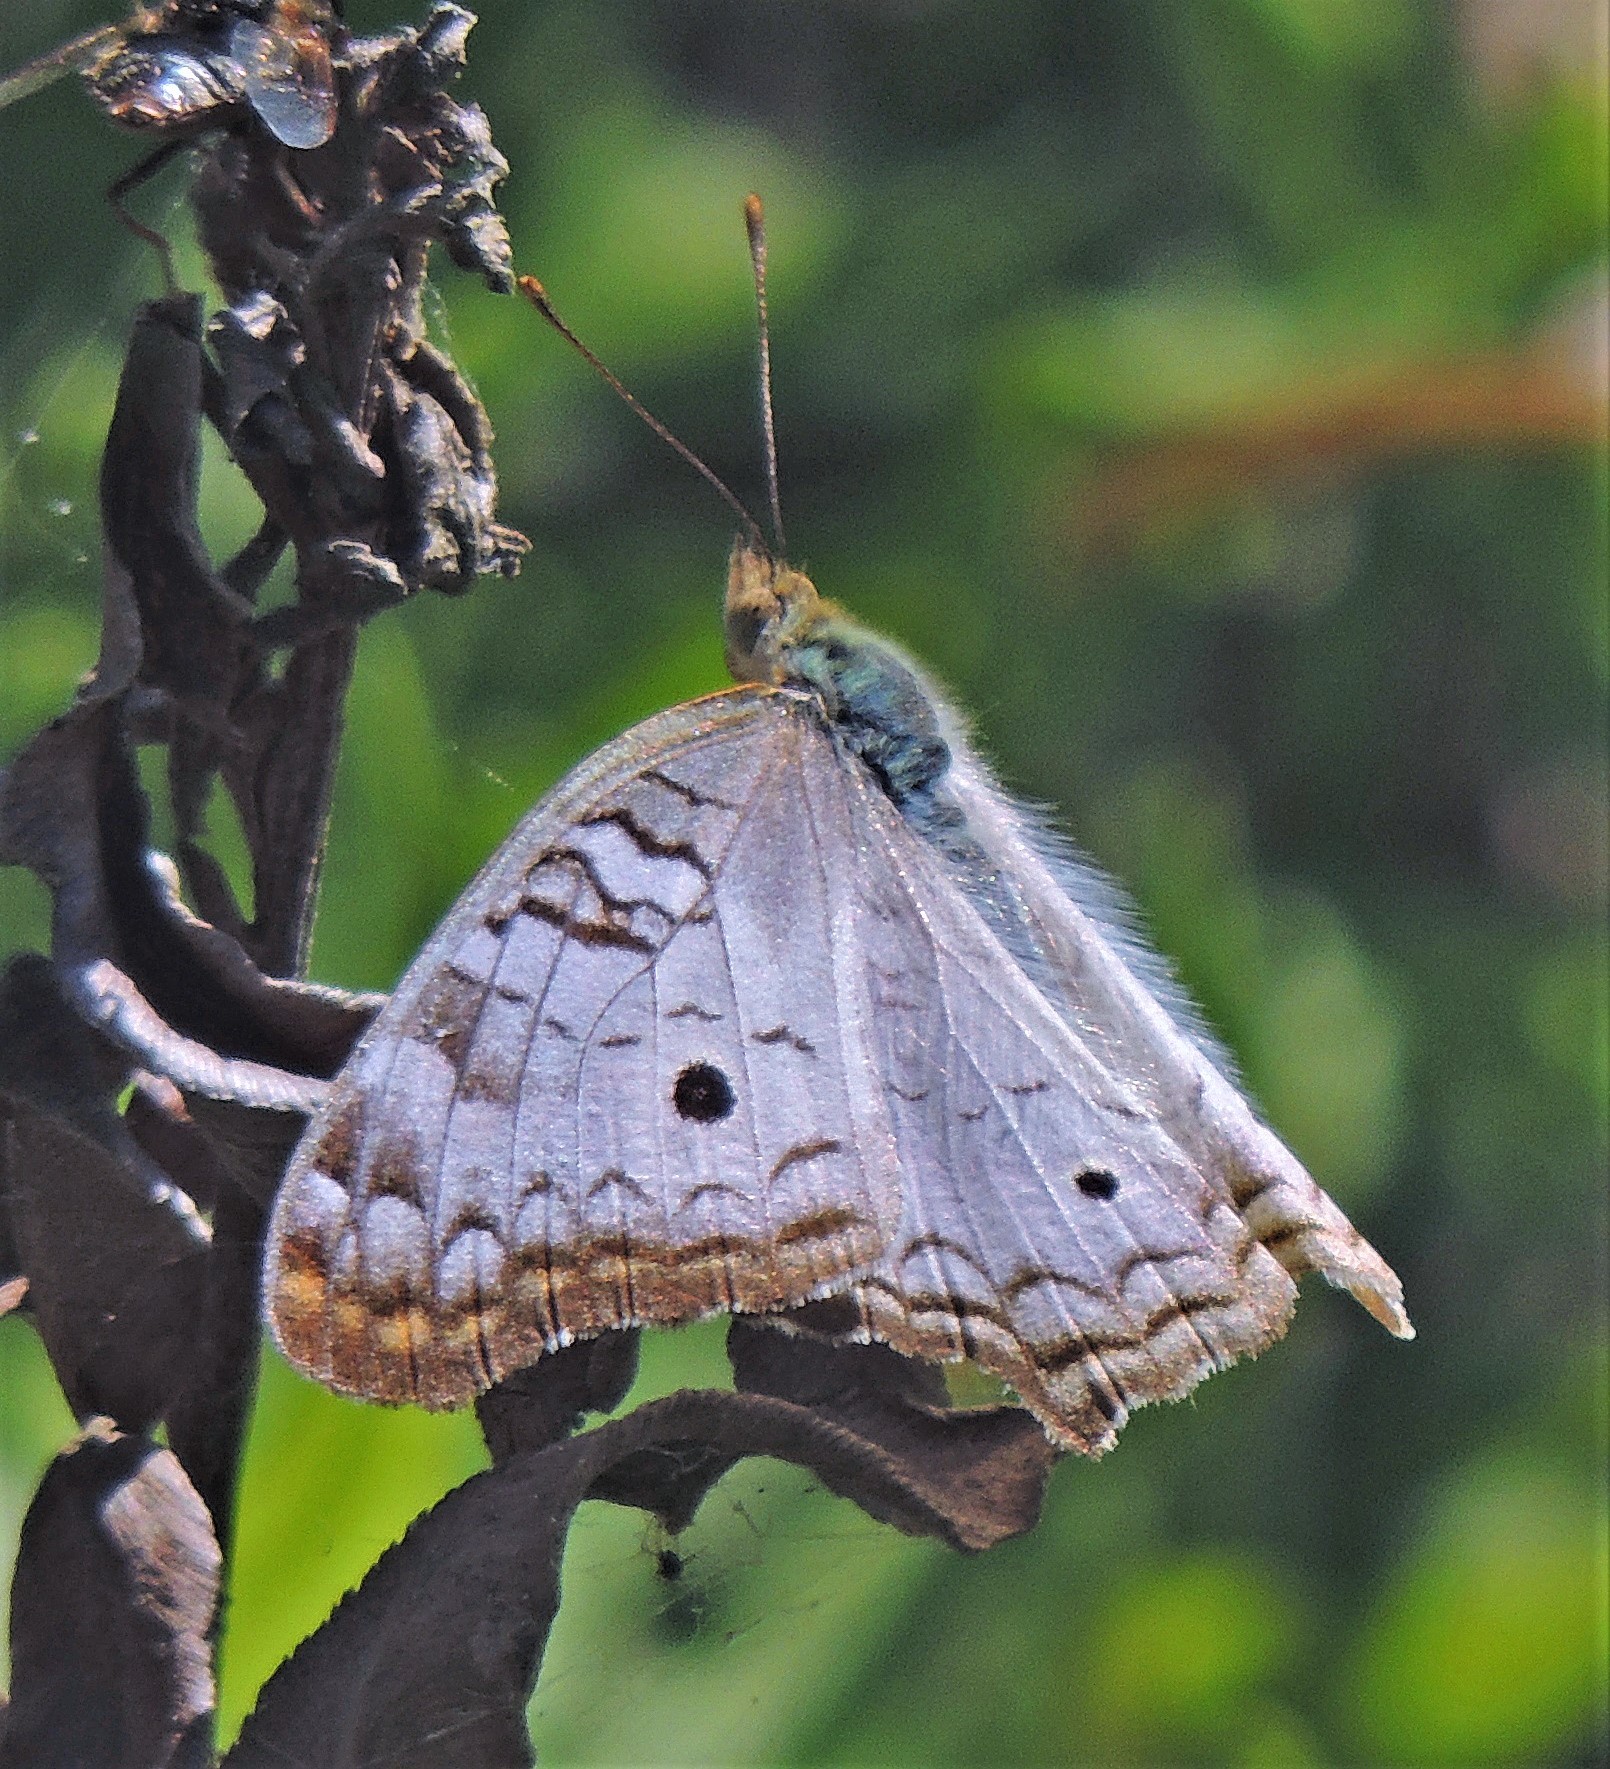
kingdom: Animalia
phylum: Arthropoda
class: Insecta
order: Lepidoptera
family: Nymphalidae
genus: Anartia
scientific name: Anartia jatrophae
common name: White peacock
